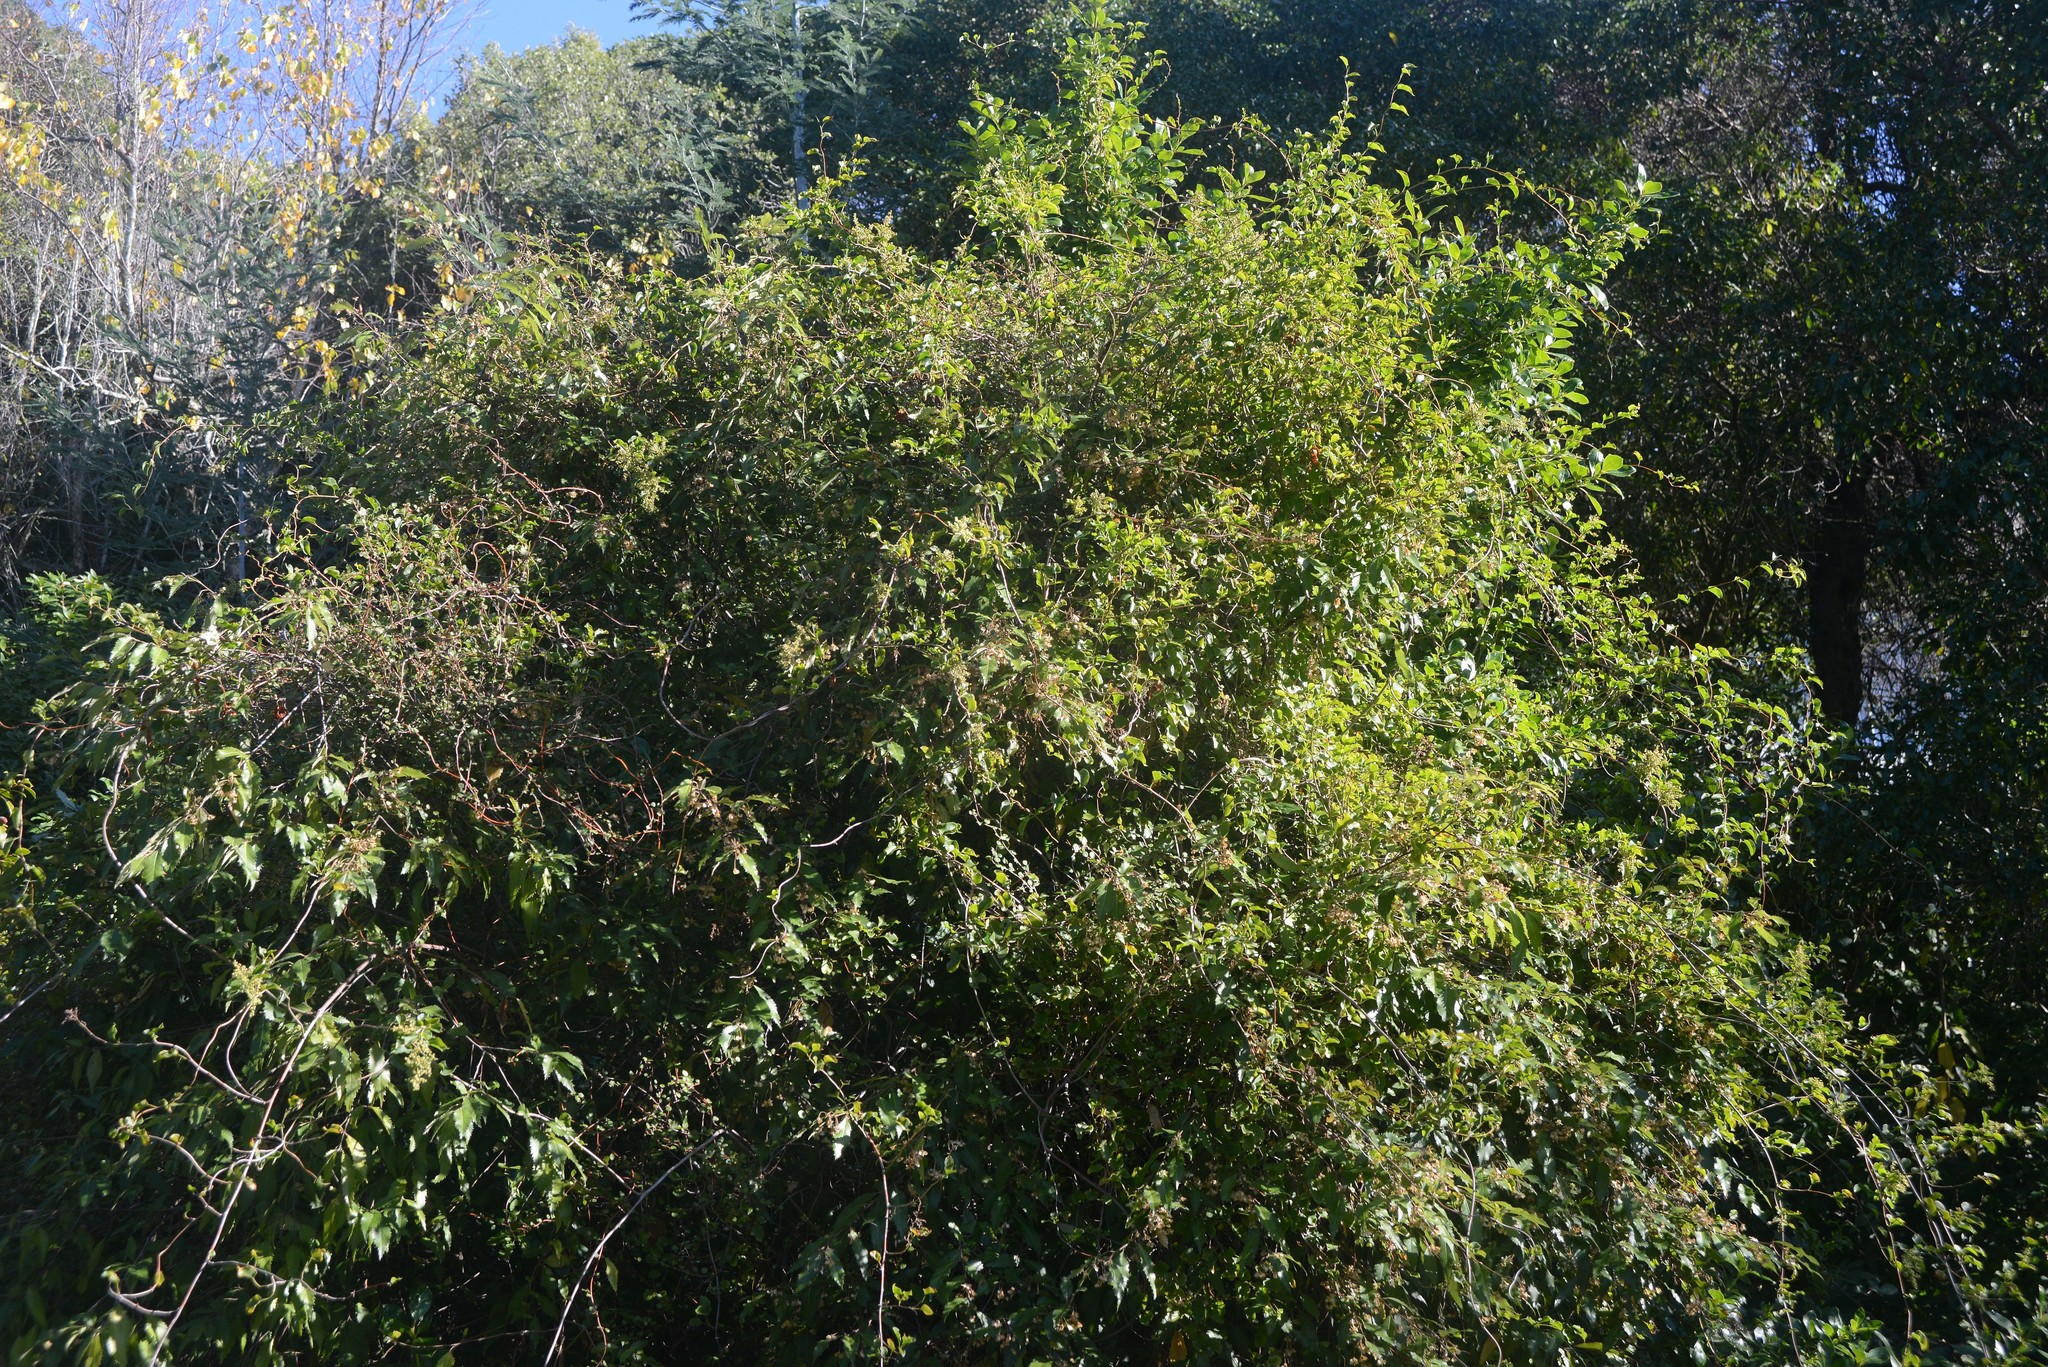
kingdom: Plantae
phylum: Tracheophyta
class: Magnoliopsida
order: Caryophyllales
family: Polygonaceae
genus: Muehlenbeckia
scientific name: Muehlenbeckia australis
